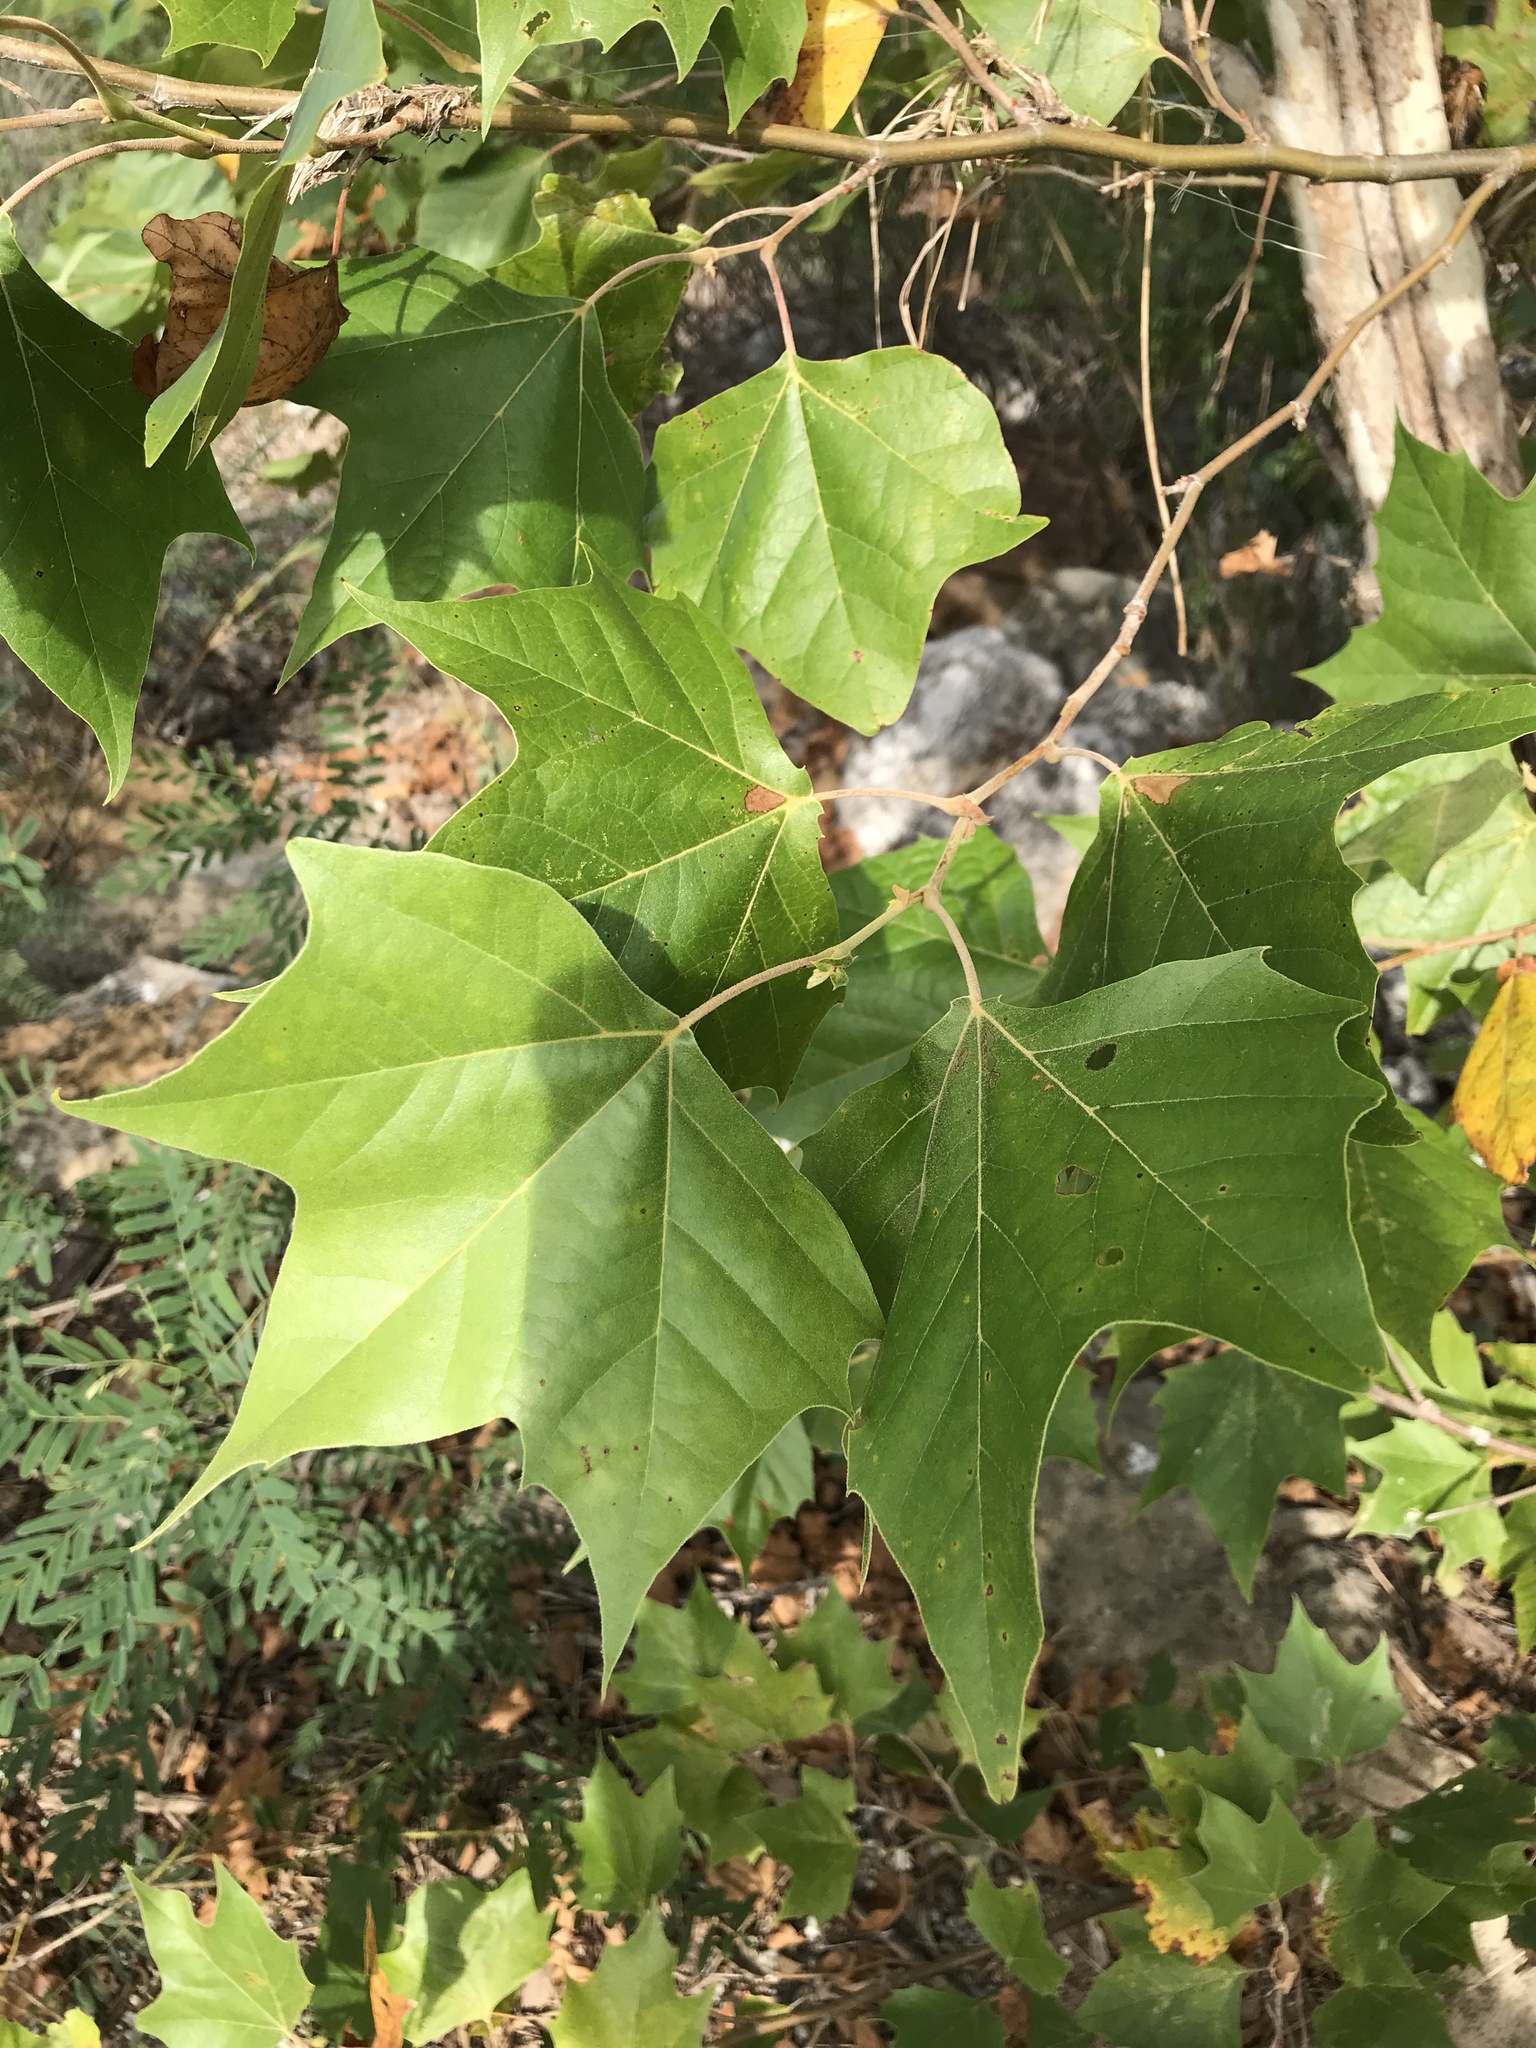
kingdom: Plantae
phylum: Tracheophyta
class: Magnoliopsida
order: Proteales
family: Platanaceae
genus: Platanus
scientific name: Platanus occidentalis
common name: American sycamore
